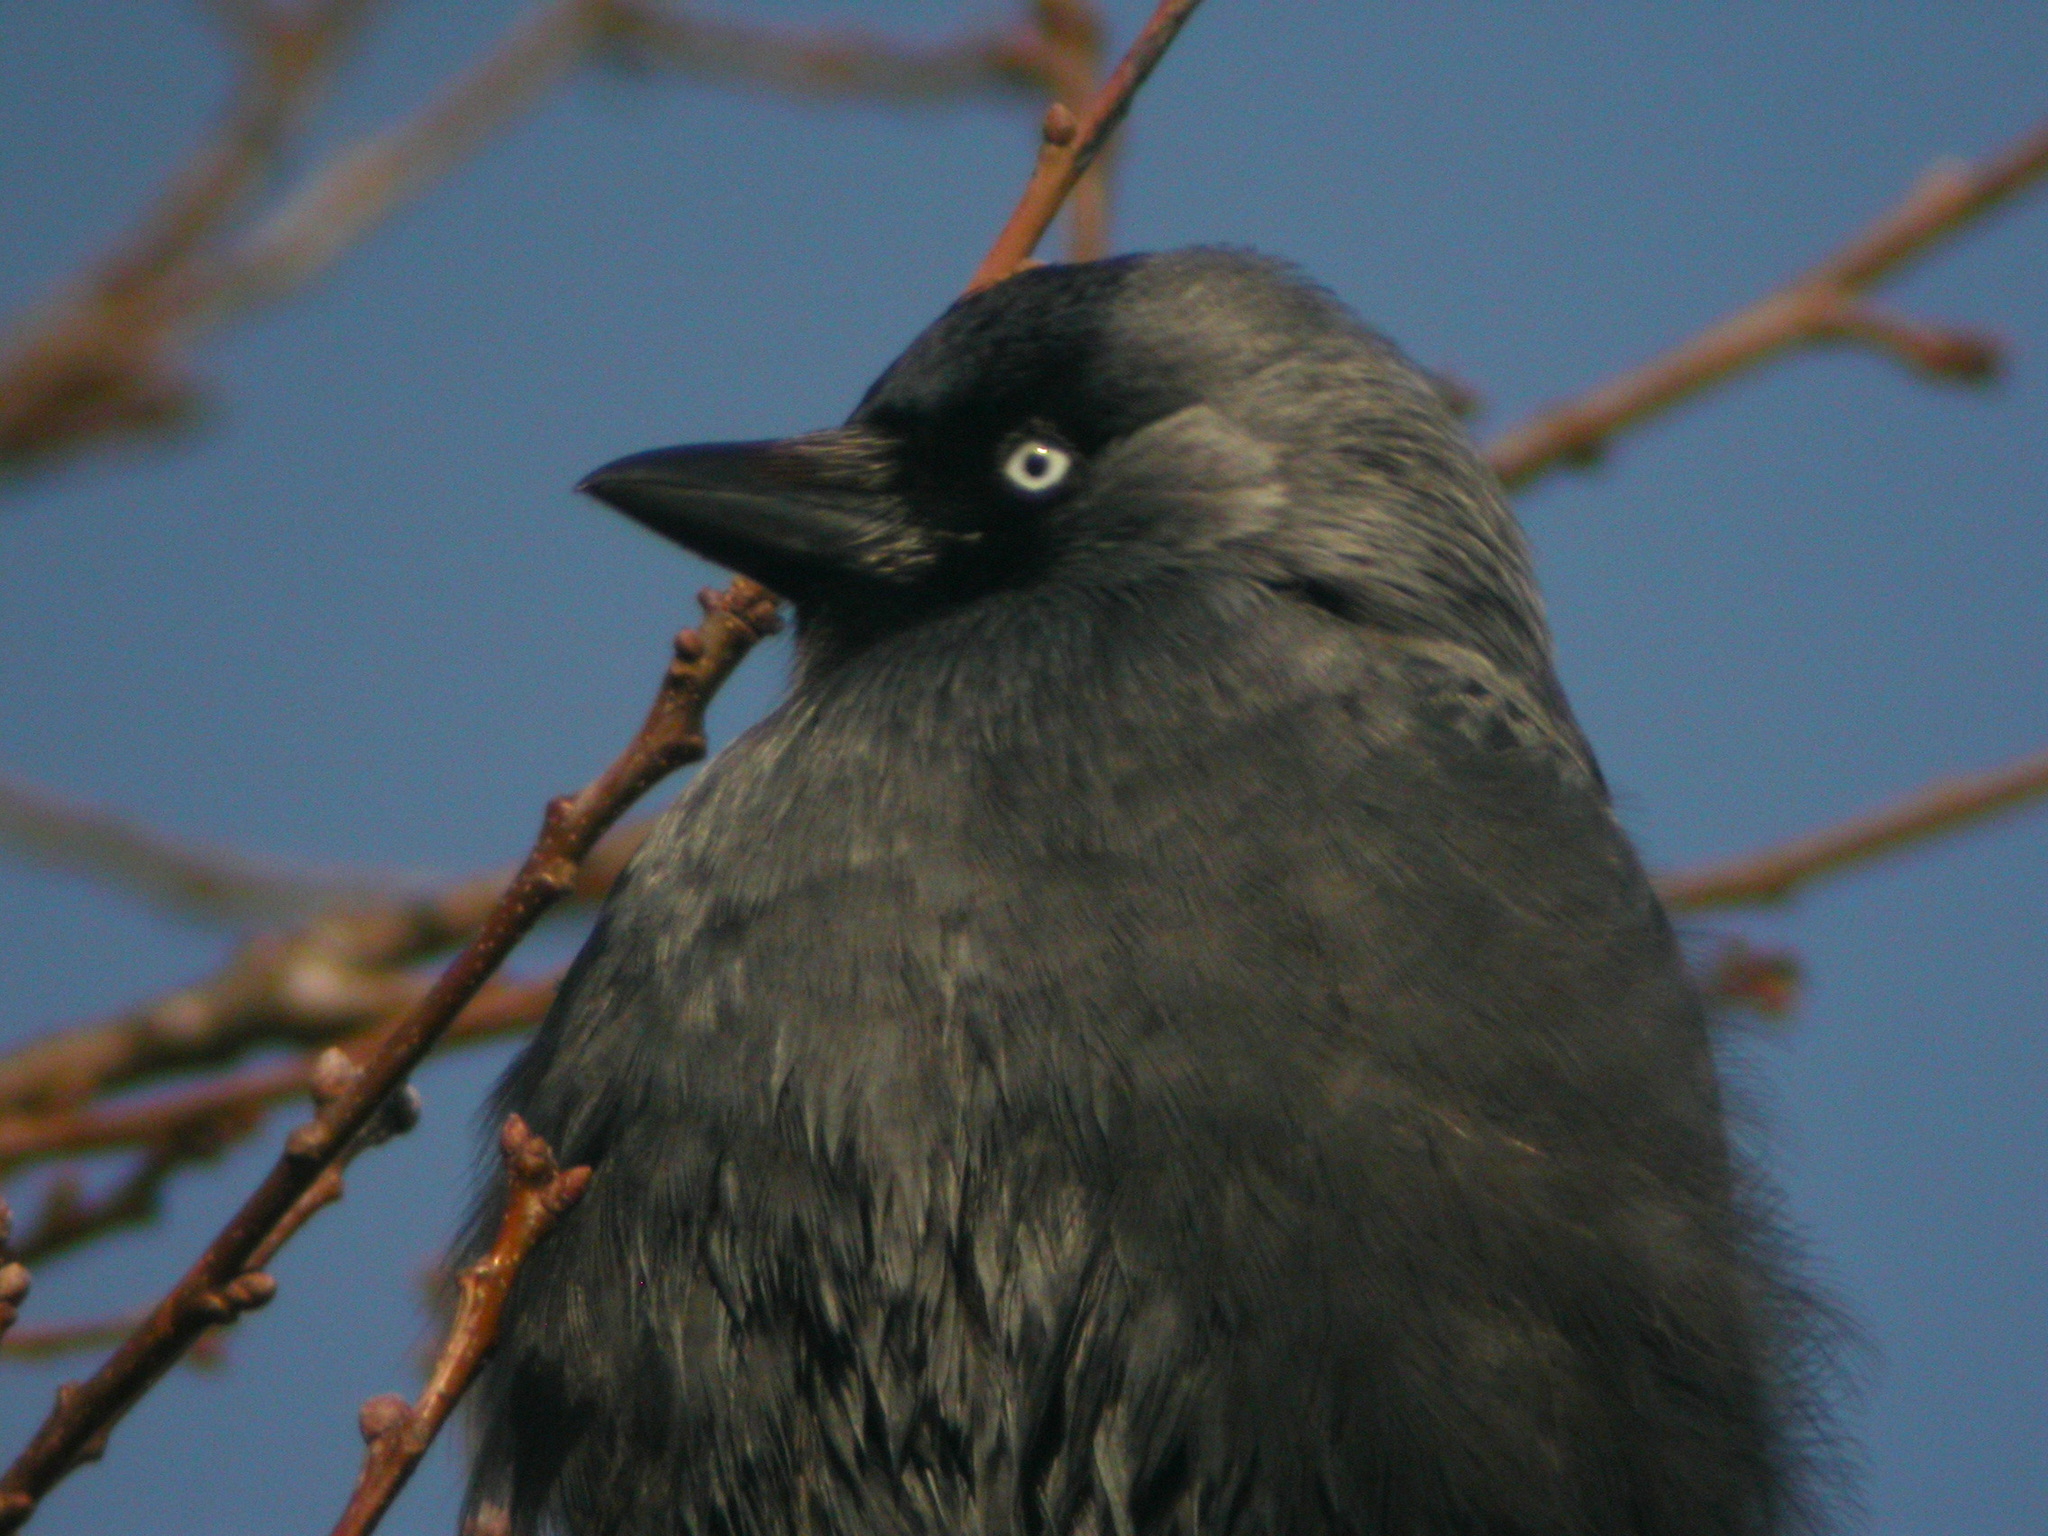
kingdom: Animalia
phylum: Chordata
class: Aves
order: Passeriformes
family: Corvidae
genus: Coloeus
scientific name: Coloeus monedula
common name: Western jackdaw
